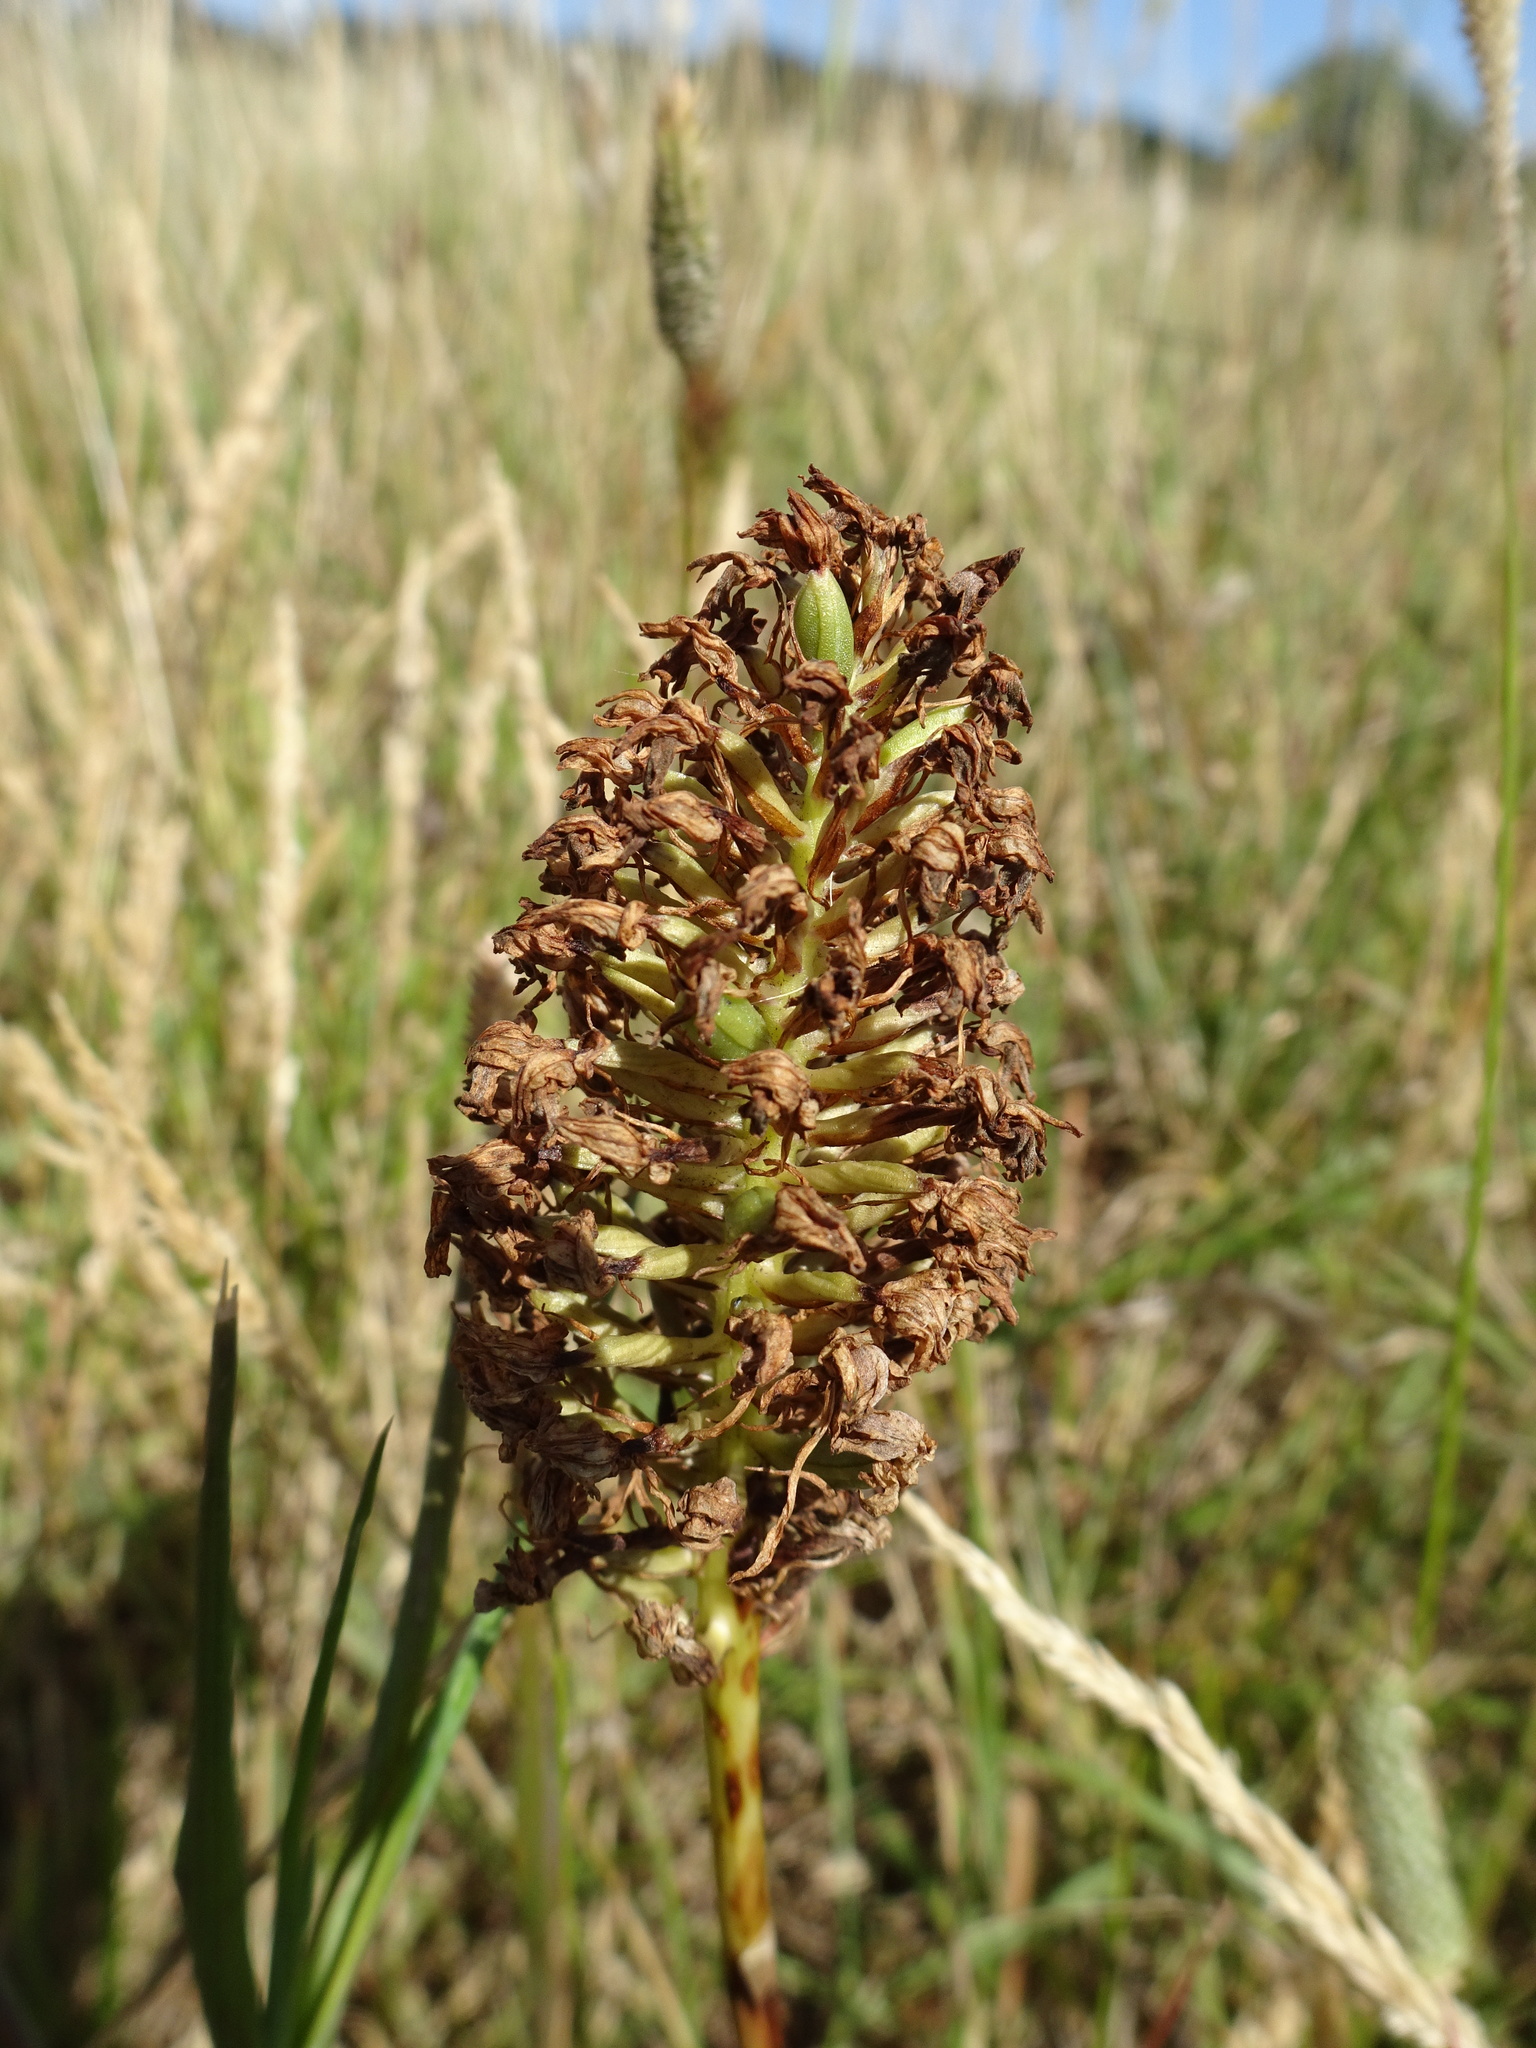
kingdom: Plantae
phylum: Tracheophyta
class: Liliopsida
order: Asparagales
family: Orchidaceae
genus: Anacamptis
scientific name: Anacamptis pyramidalis
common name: Pyramidal orchid
